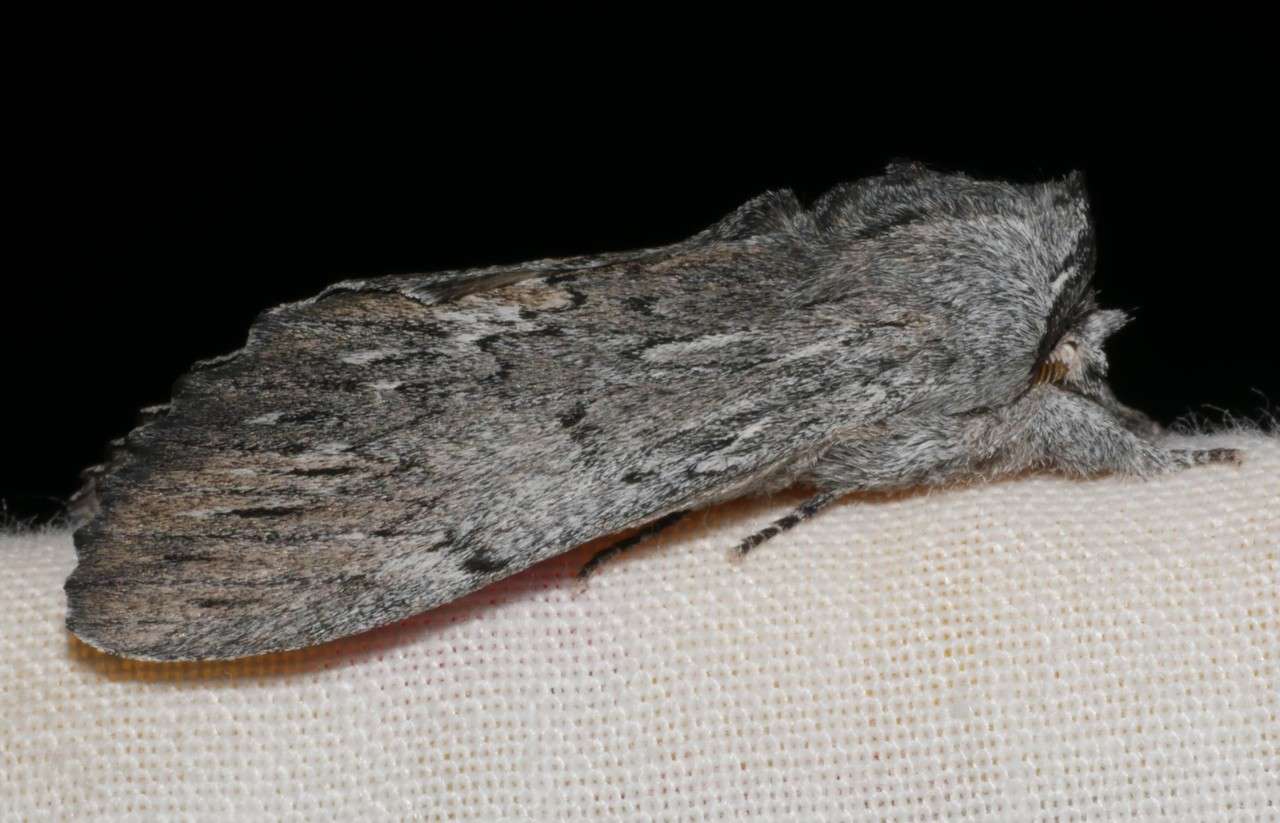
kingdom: Animalia
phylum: Arthropoda
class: Insecta
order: Lepidoptera
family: Notodontidae
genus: Destolmia
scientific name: Destolmia lineata
